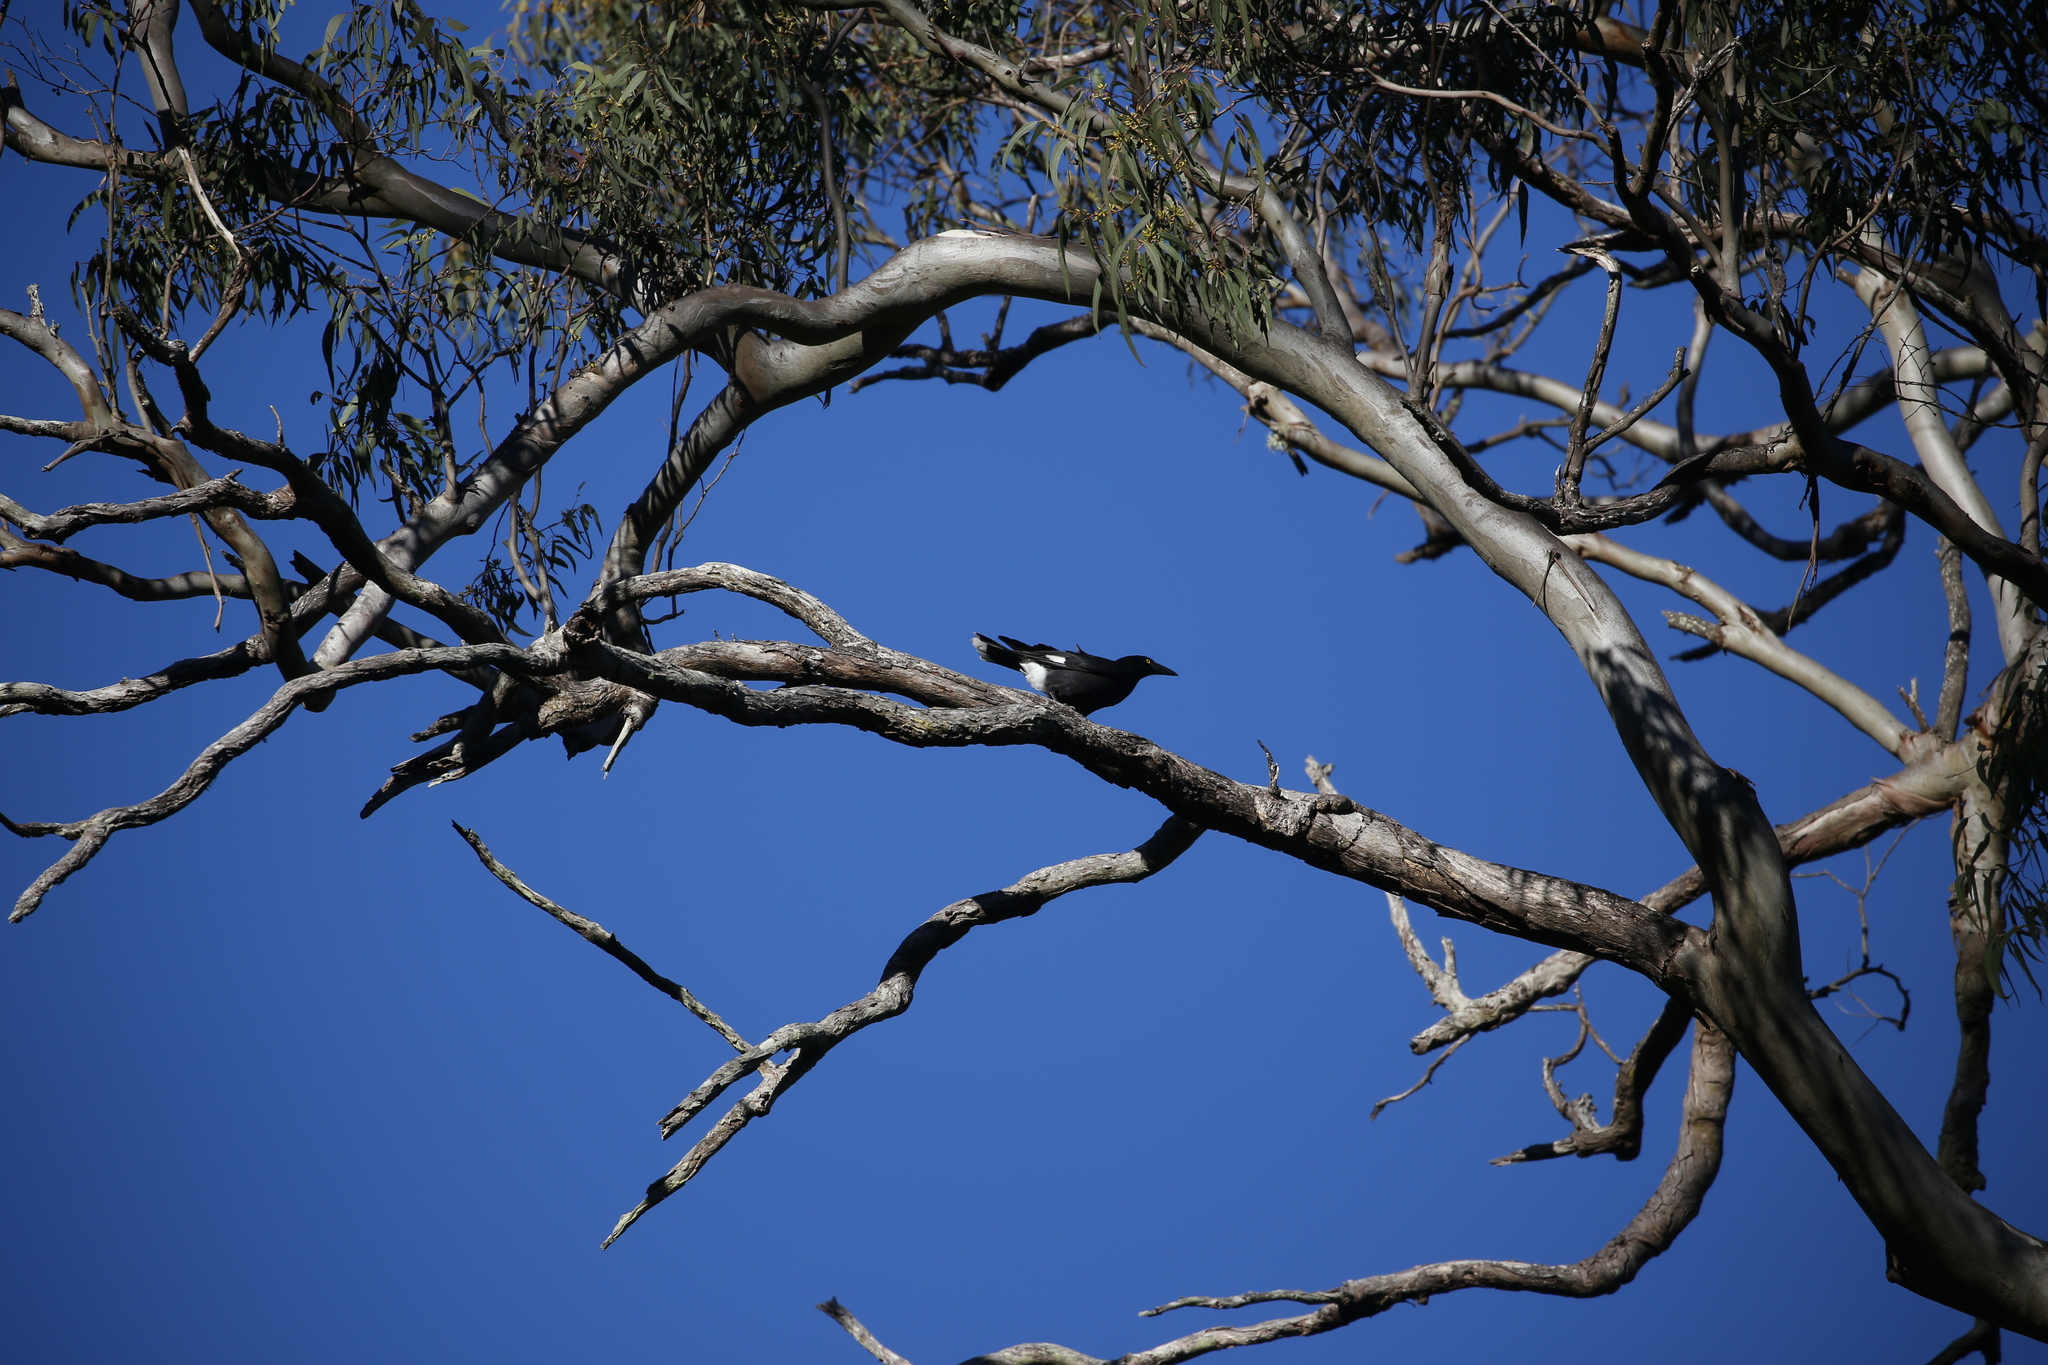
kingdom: Animalia
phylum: Chordata
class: Aves
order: Passeriformes
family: Cracticidae
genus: Strepera
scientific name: Strepera graculina
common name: Pied currawong
